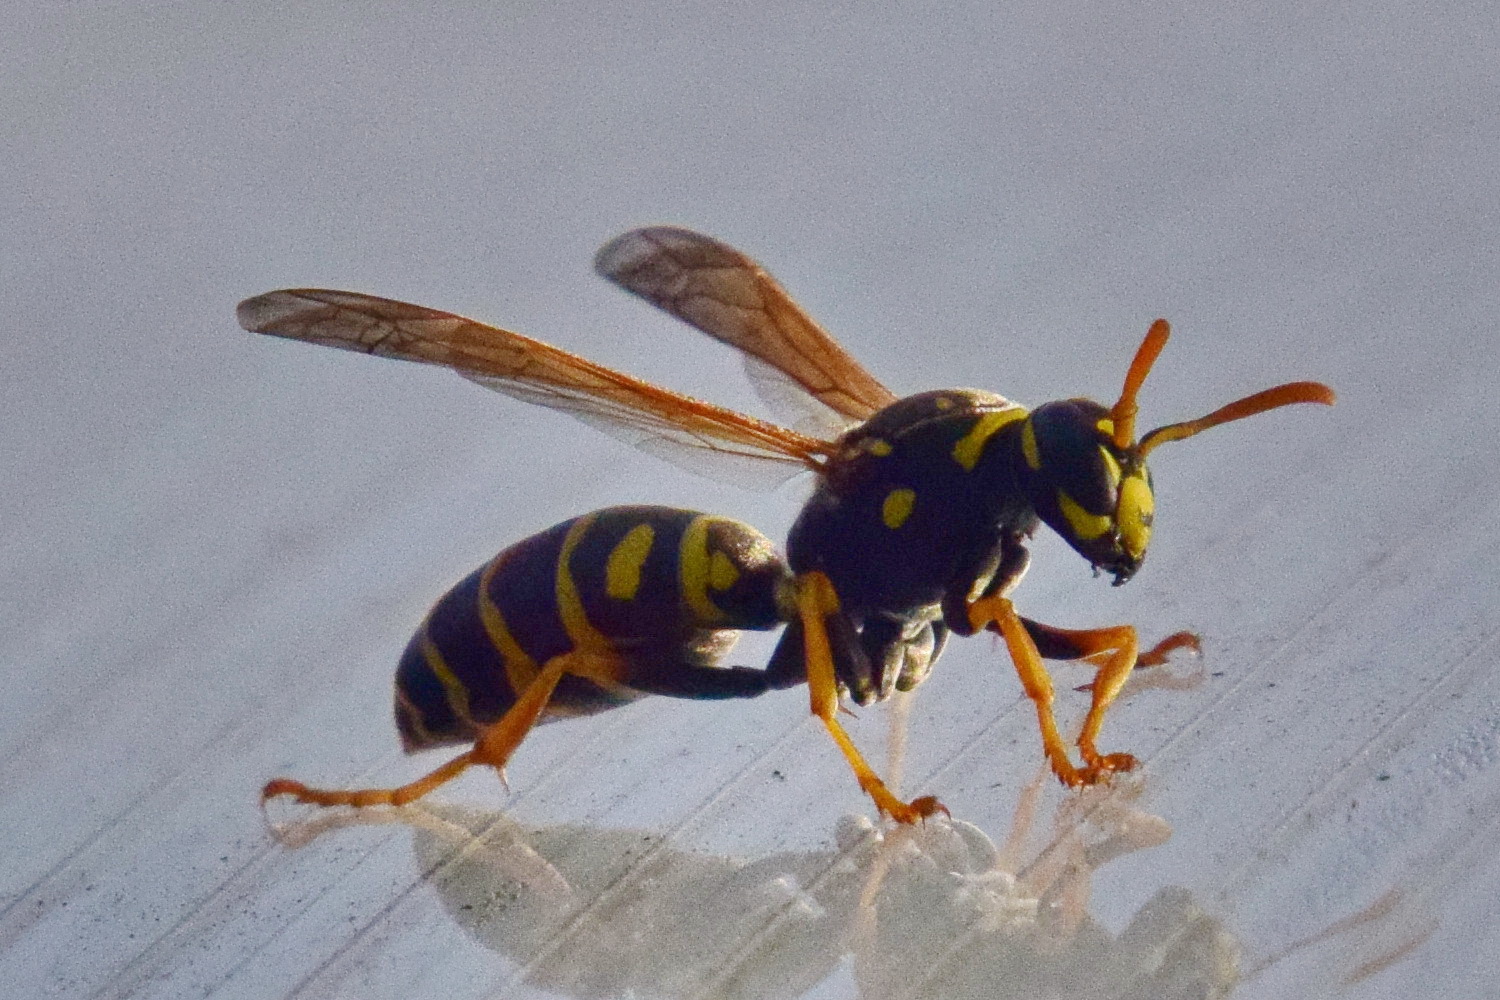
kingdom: Animalia
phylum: Arthropoda
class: Insecta
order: Hymenoptera
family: Eumenidae
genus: Polistes
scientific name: Polistes dominula
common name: Paper wasp
